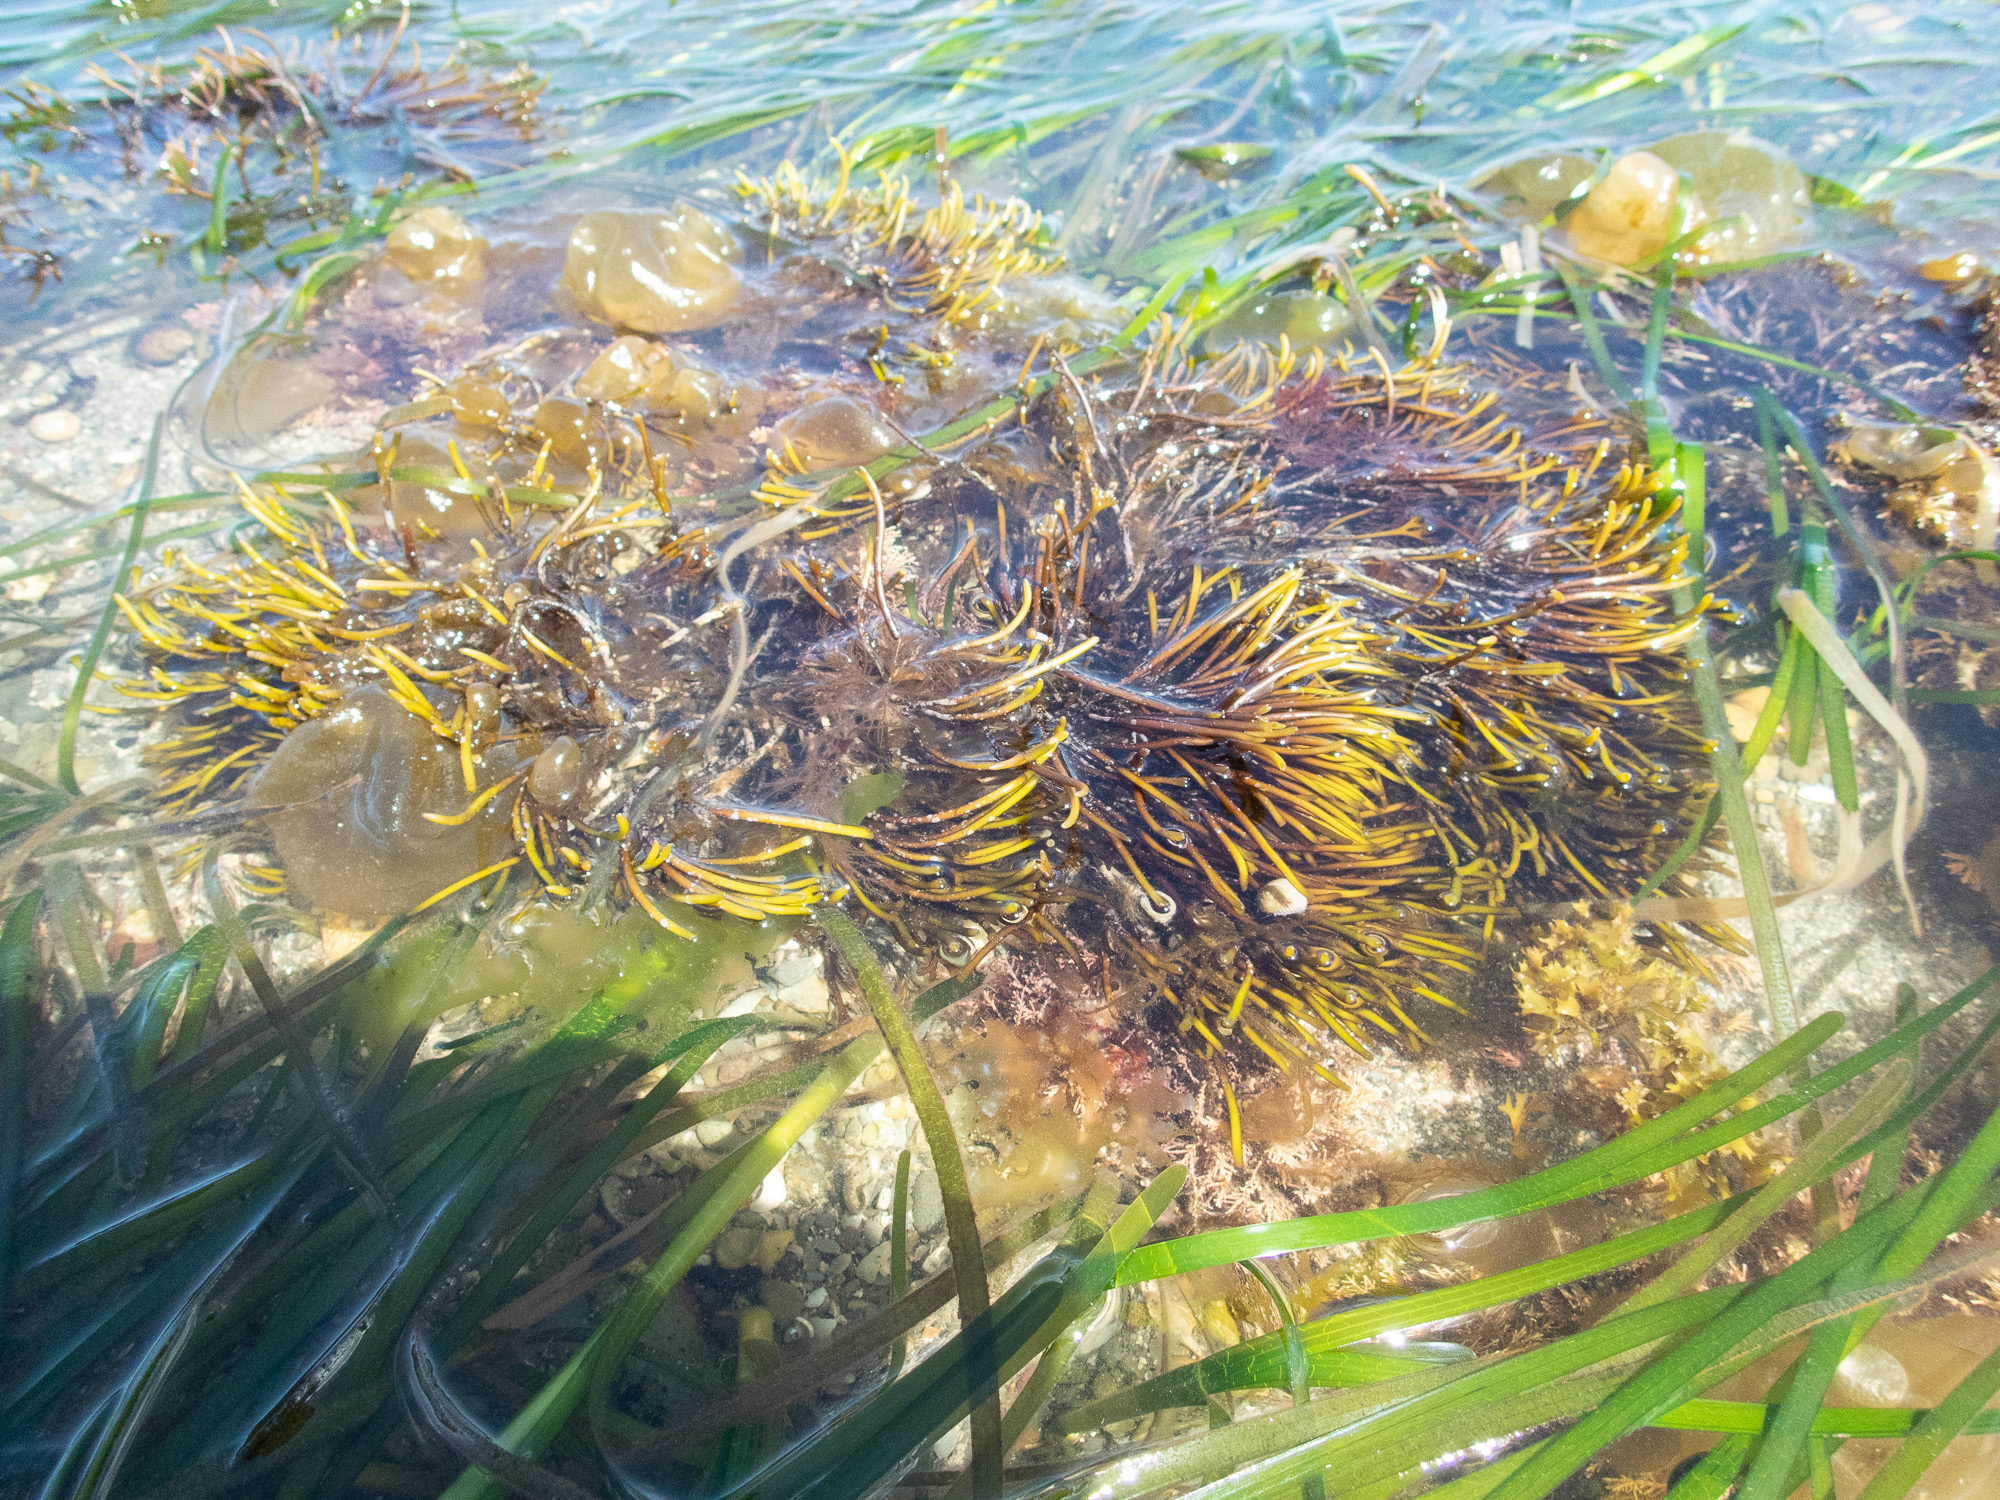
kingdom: Plantae
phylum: Rhodophyta
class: Florideophyceae
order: Gigartinales
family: Furcellariaceae
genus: Furcellaria
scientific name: Furcellaria lumbricalis
